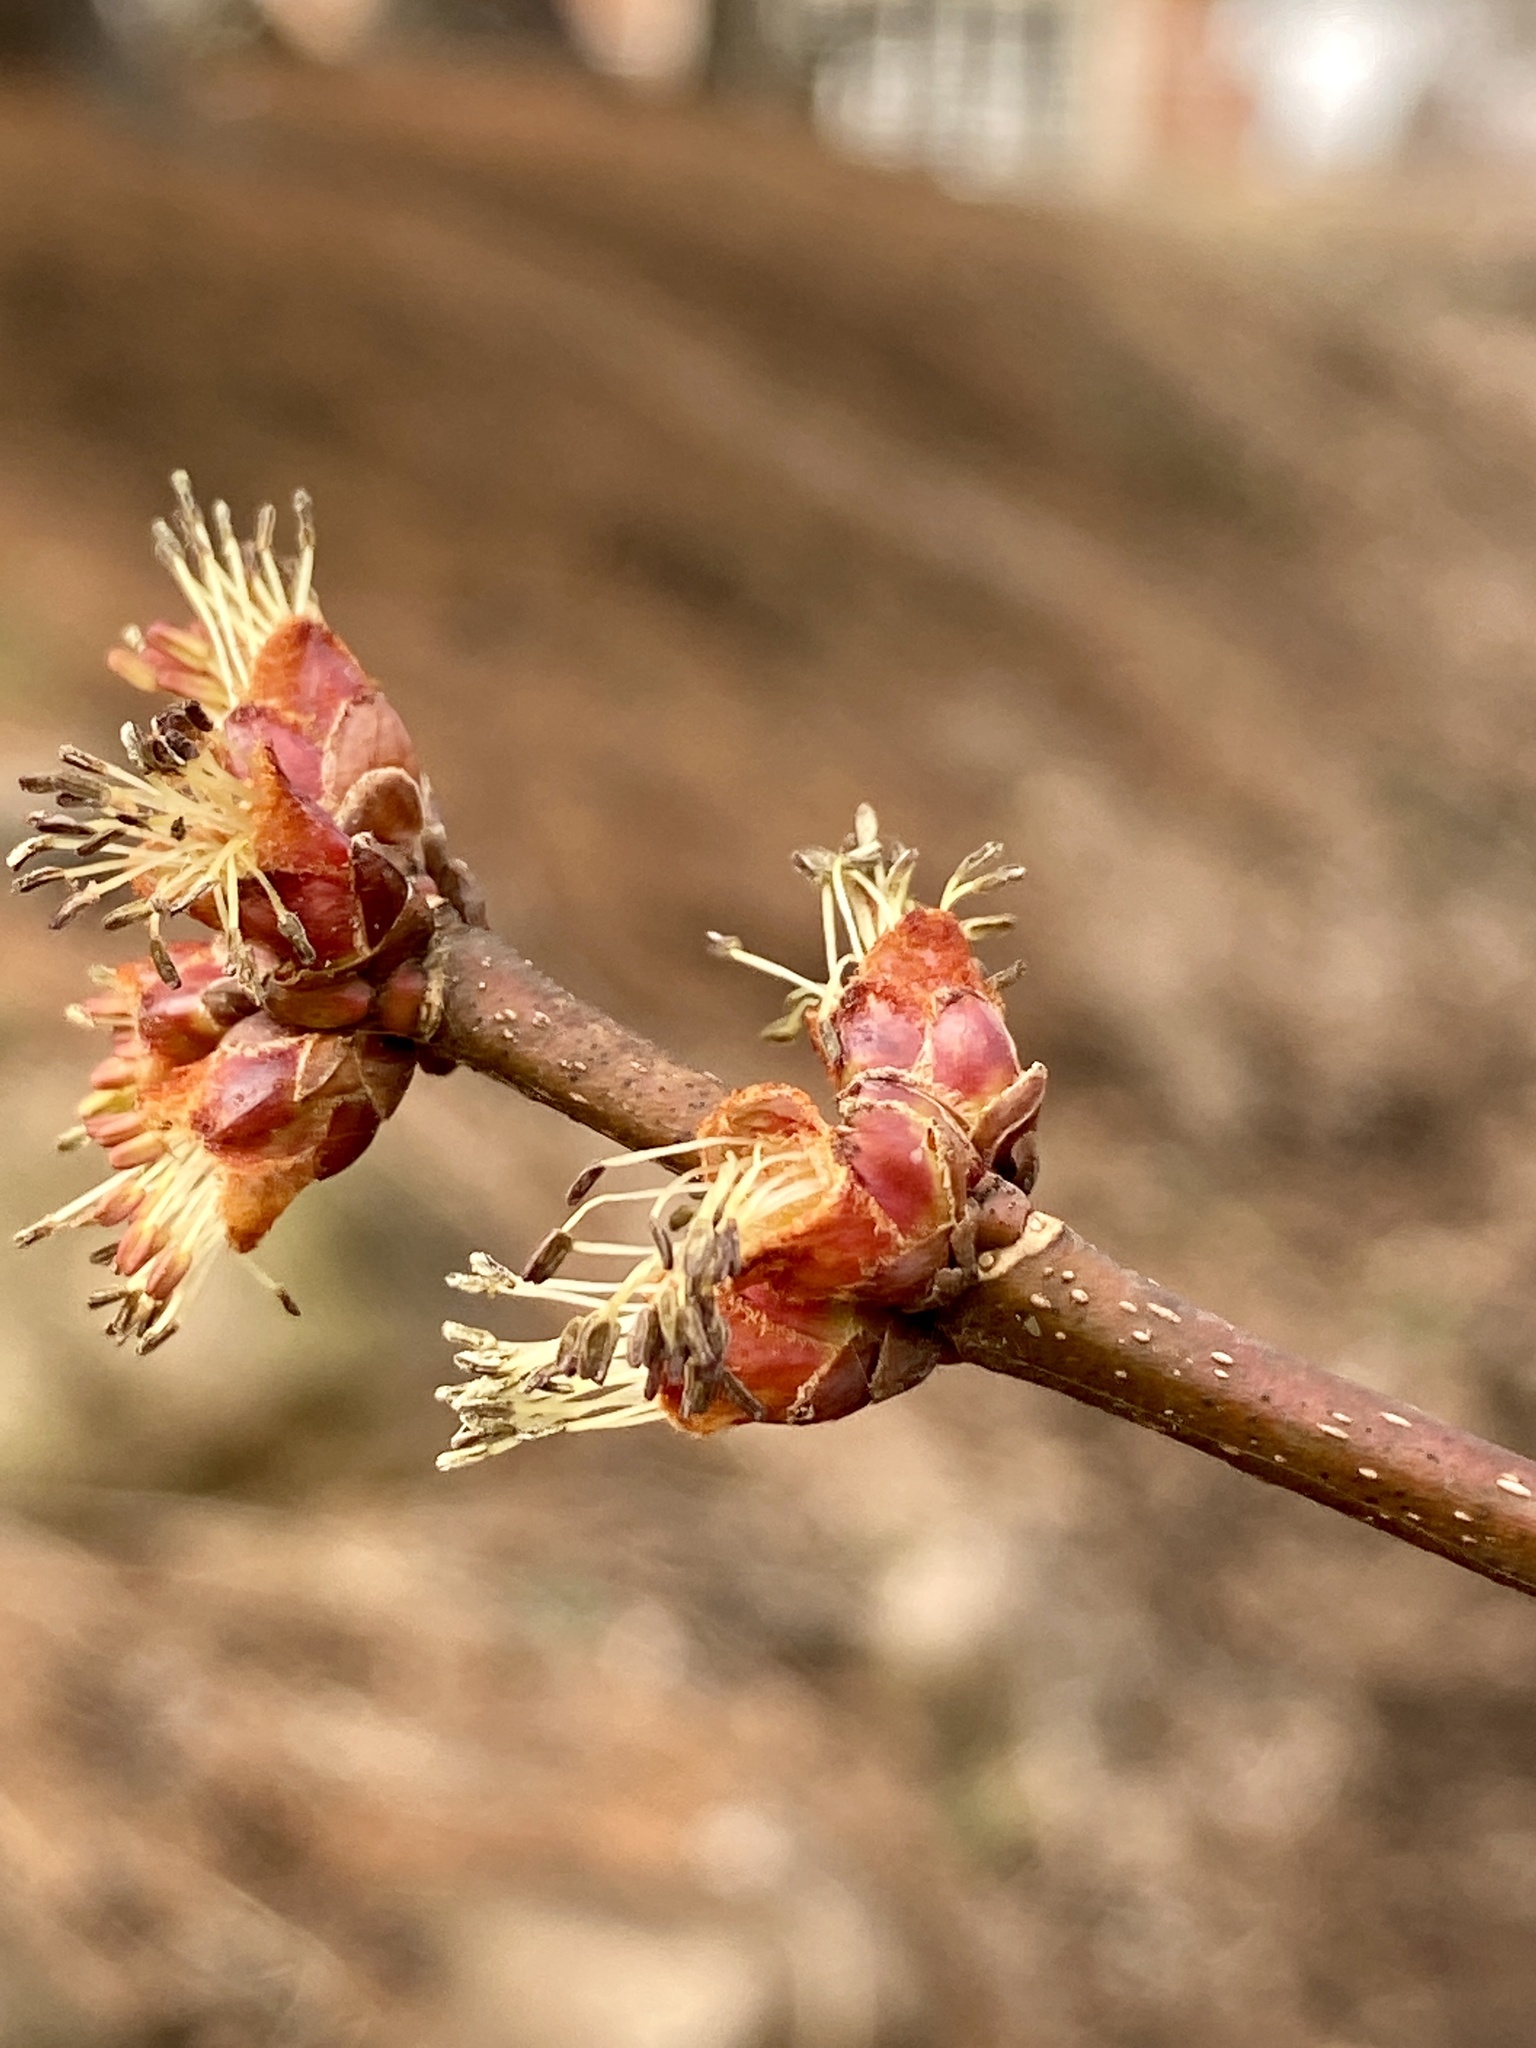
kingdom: Plantae
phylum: Tracheophyta
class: Magnoliopsida
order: Sapindales
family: Sapindaceae
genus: Acer
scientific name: Acer saccharinum
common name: Silver maple
